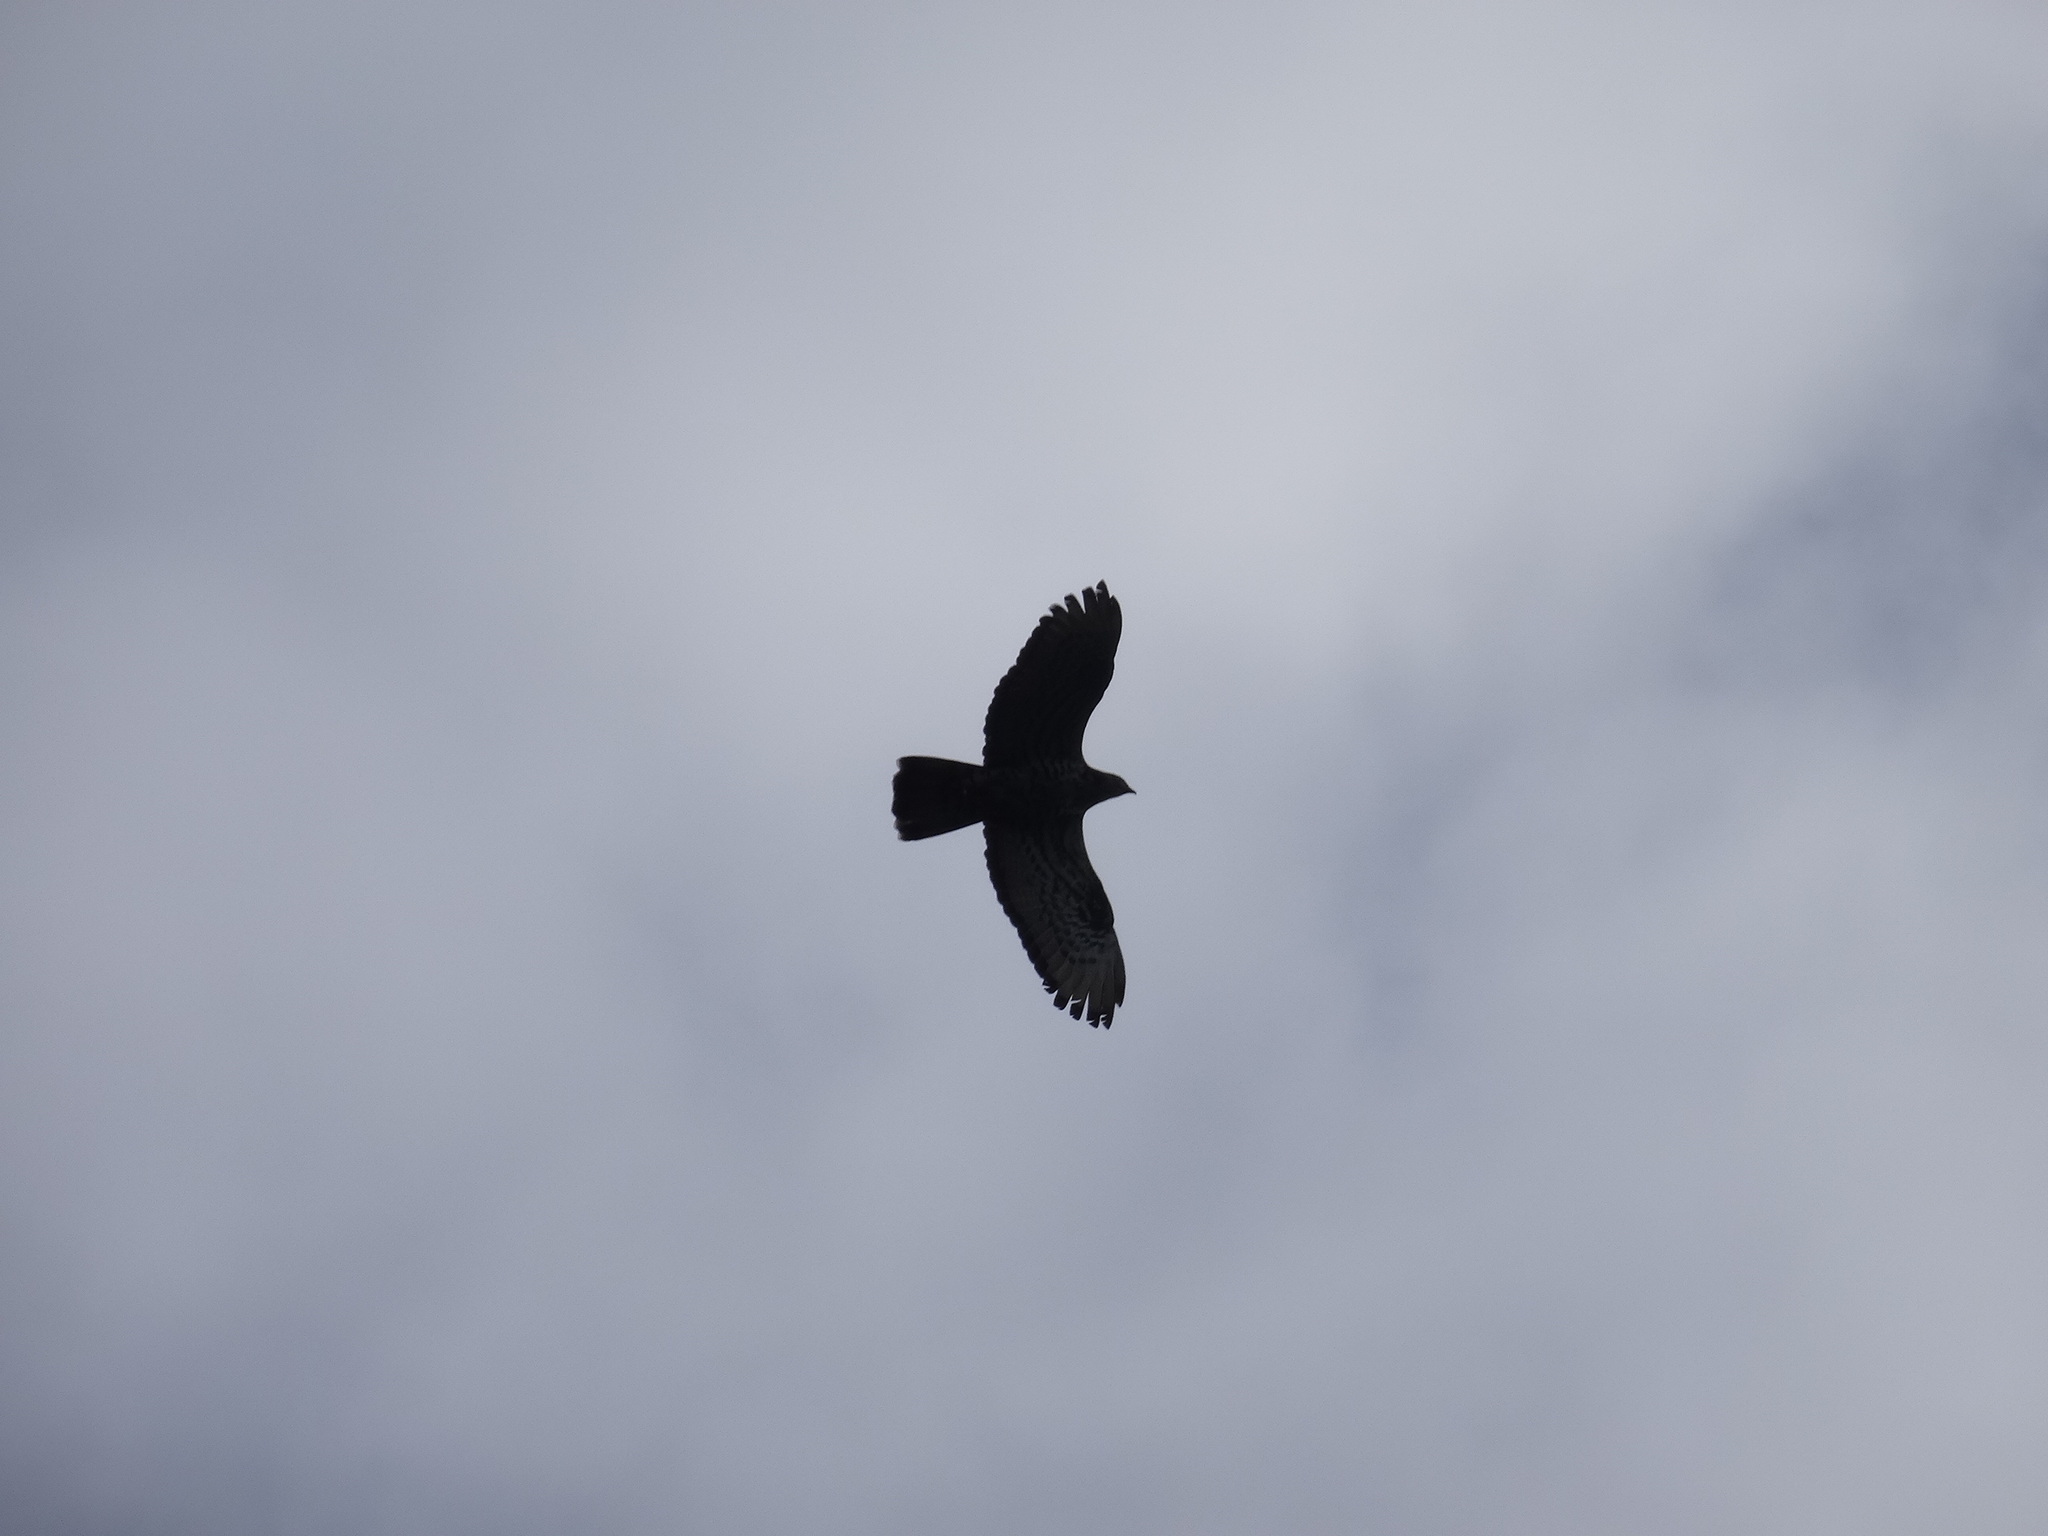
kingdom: Animalia
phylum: Chordata
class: Aves
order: Accipitriformes
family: Accipitridae
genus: Pernis
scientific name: Pernis apivorus
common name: European honey buzzard
